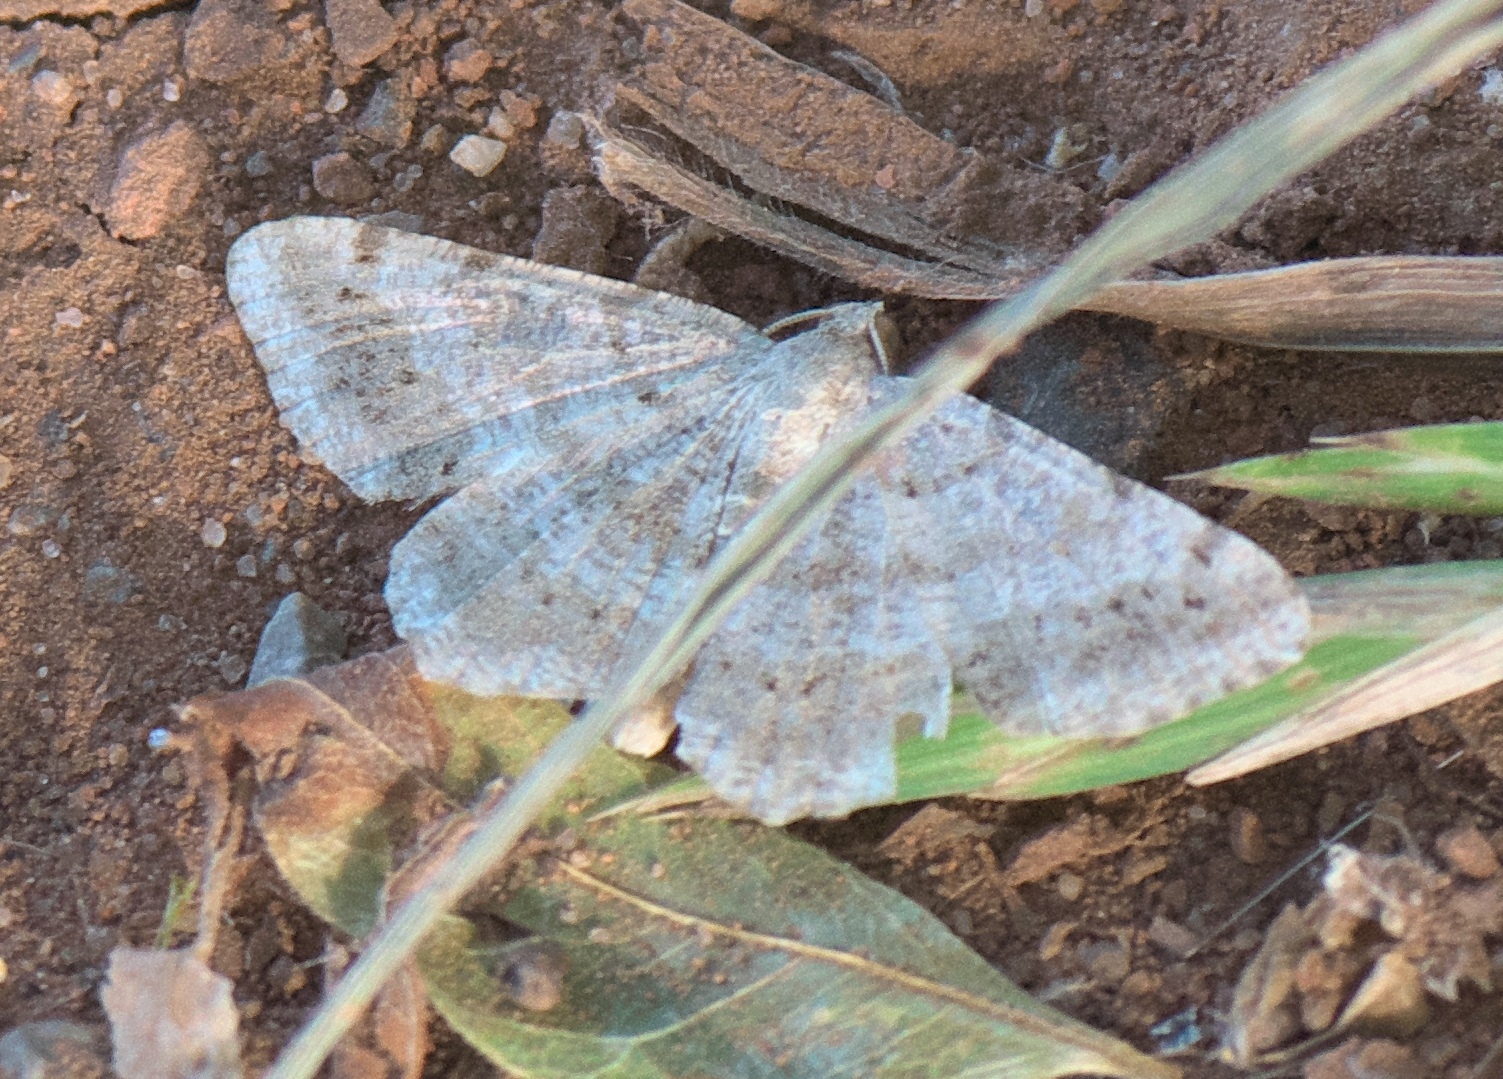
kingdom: Animalia
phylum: Arthropoda
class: Insecta
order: Lepidoptera
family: Geometridae
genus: Digrammia
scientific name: Digrammia ocellinata
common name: Faint-spotted angle
